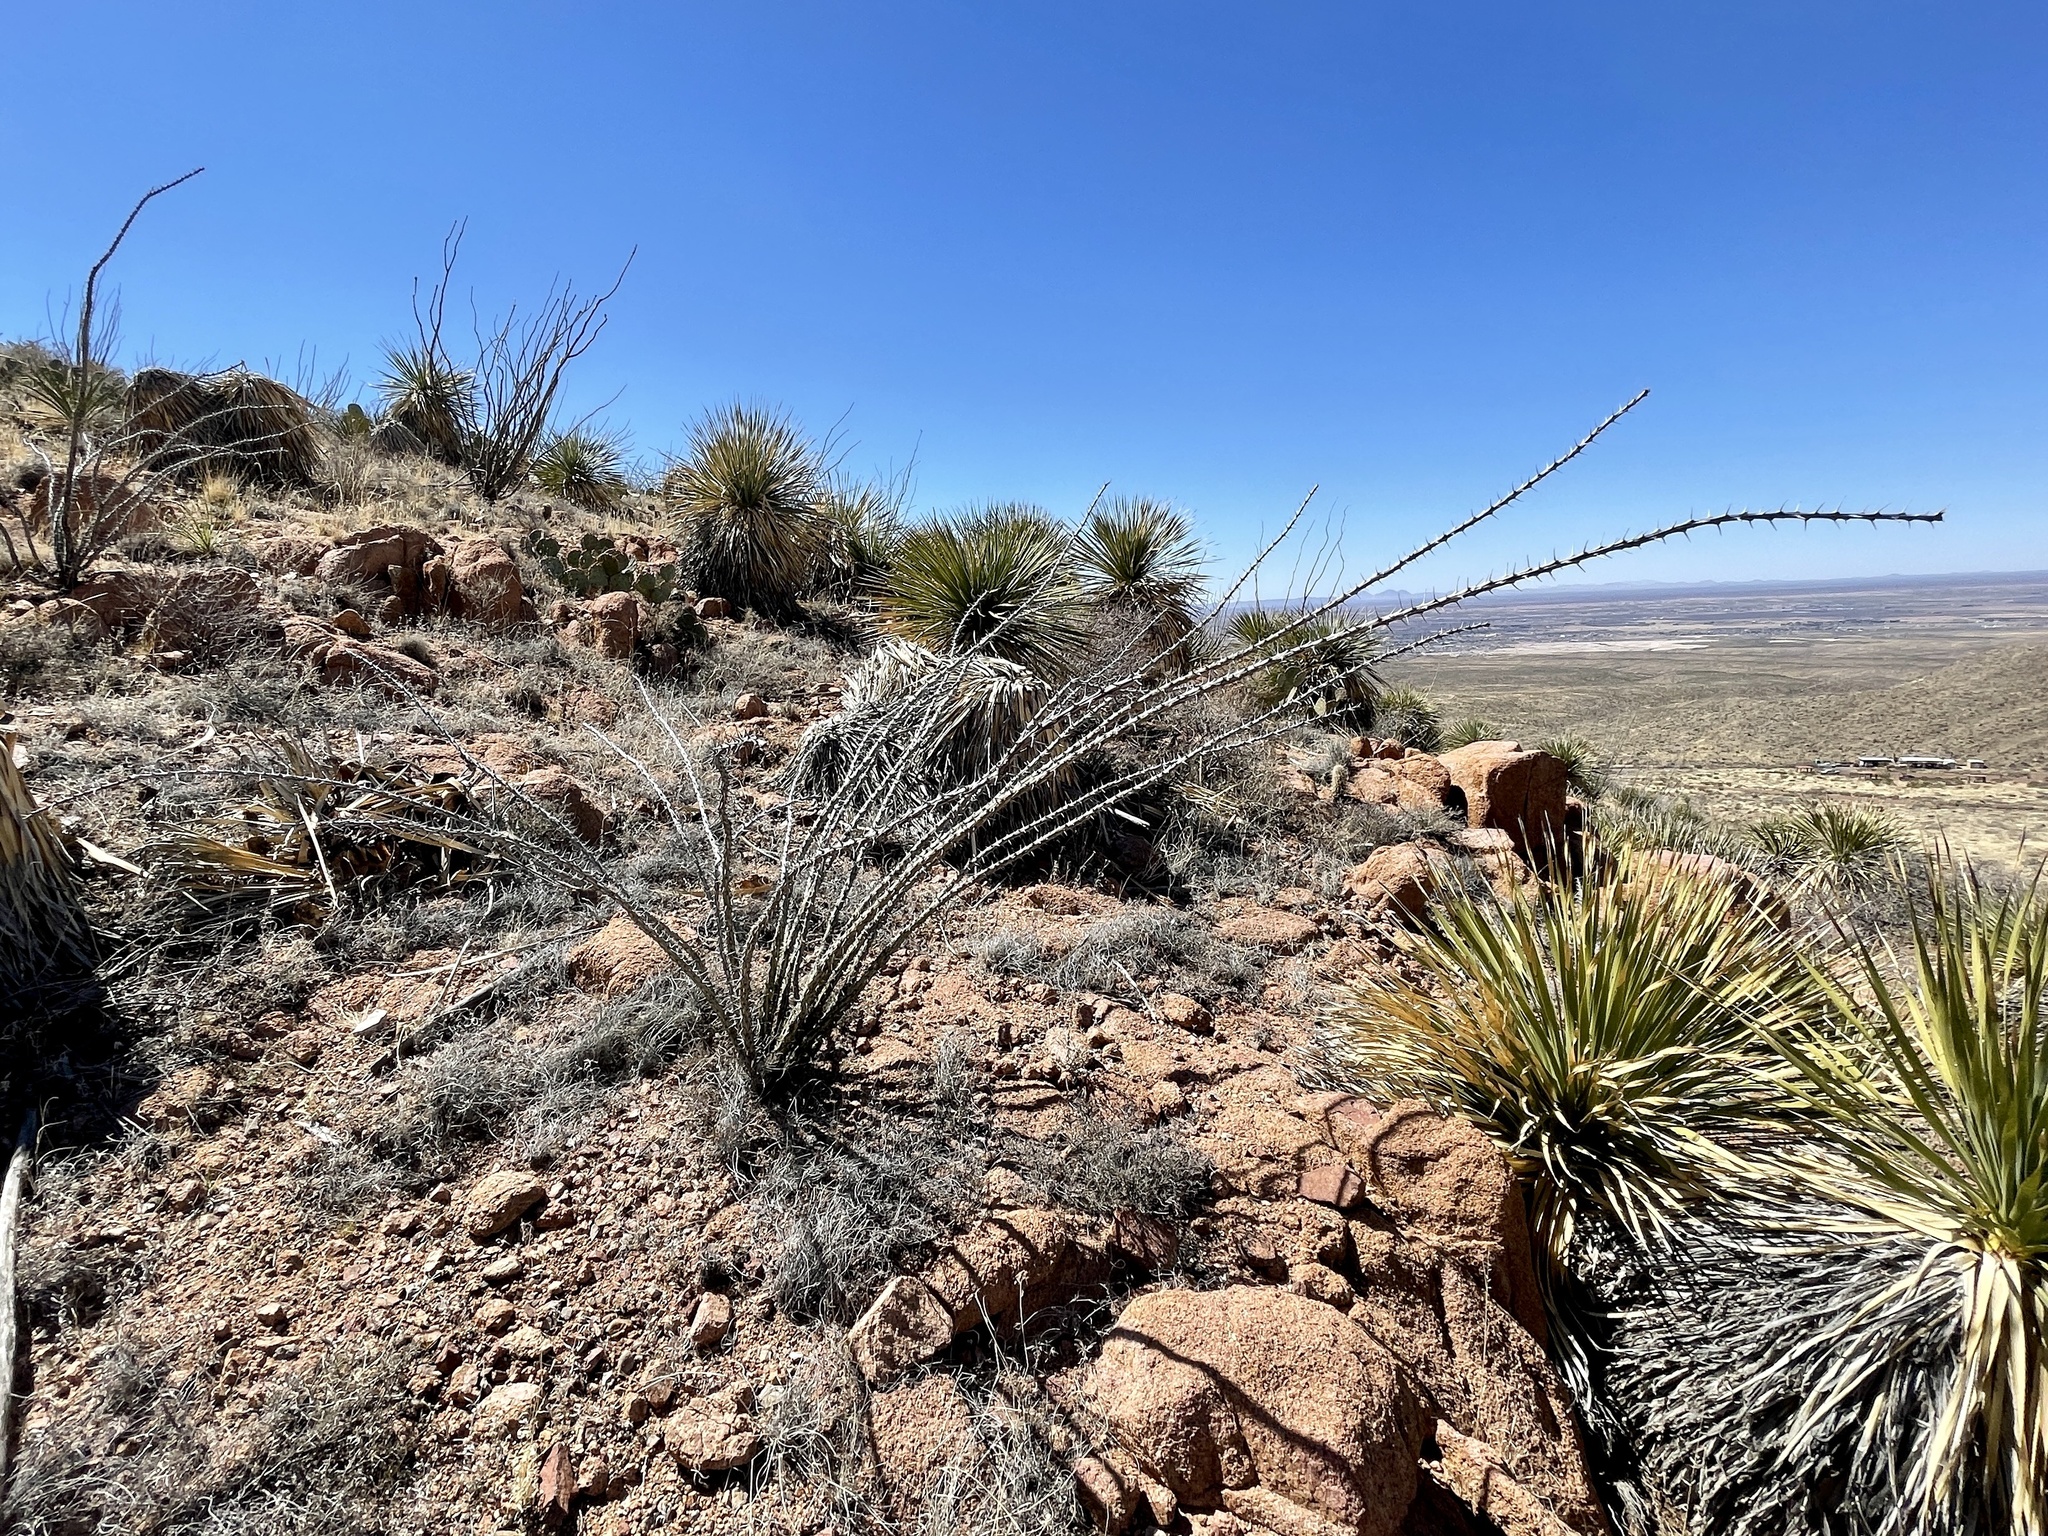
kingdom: Plantae
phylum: Tracheophyta
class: Magnoliopsida
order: Ericales
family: Fouquieriaceae
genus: Fouquieria
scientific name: Fouquieria splendens
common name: Vine-cactus
